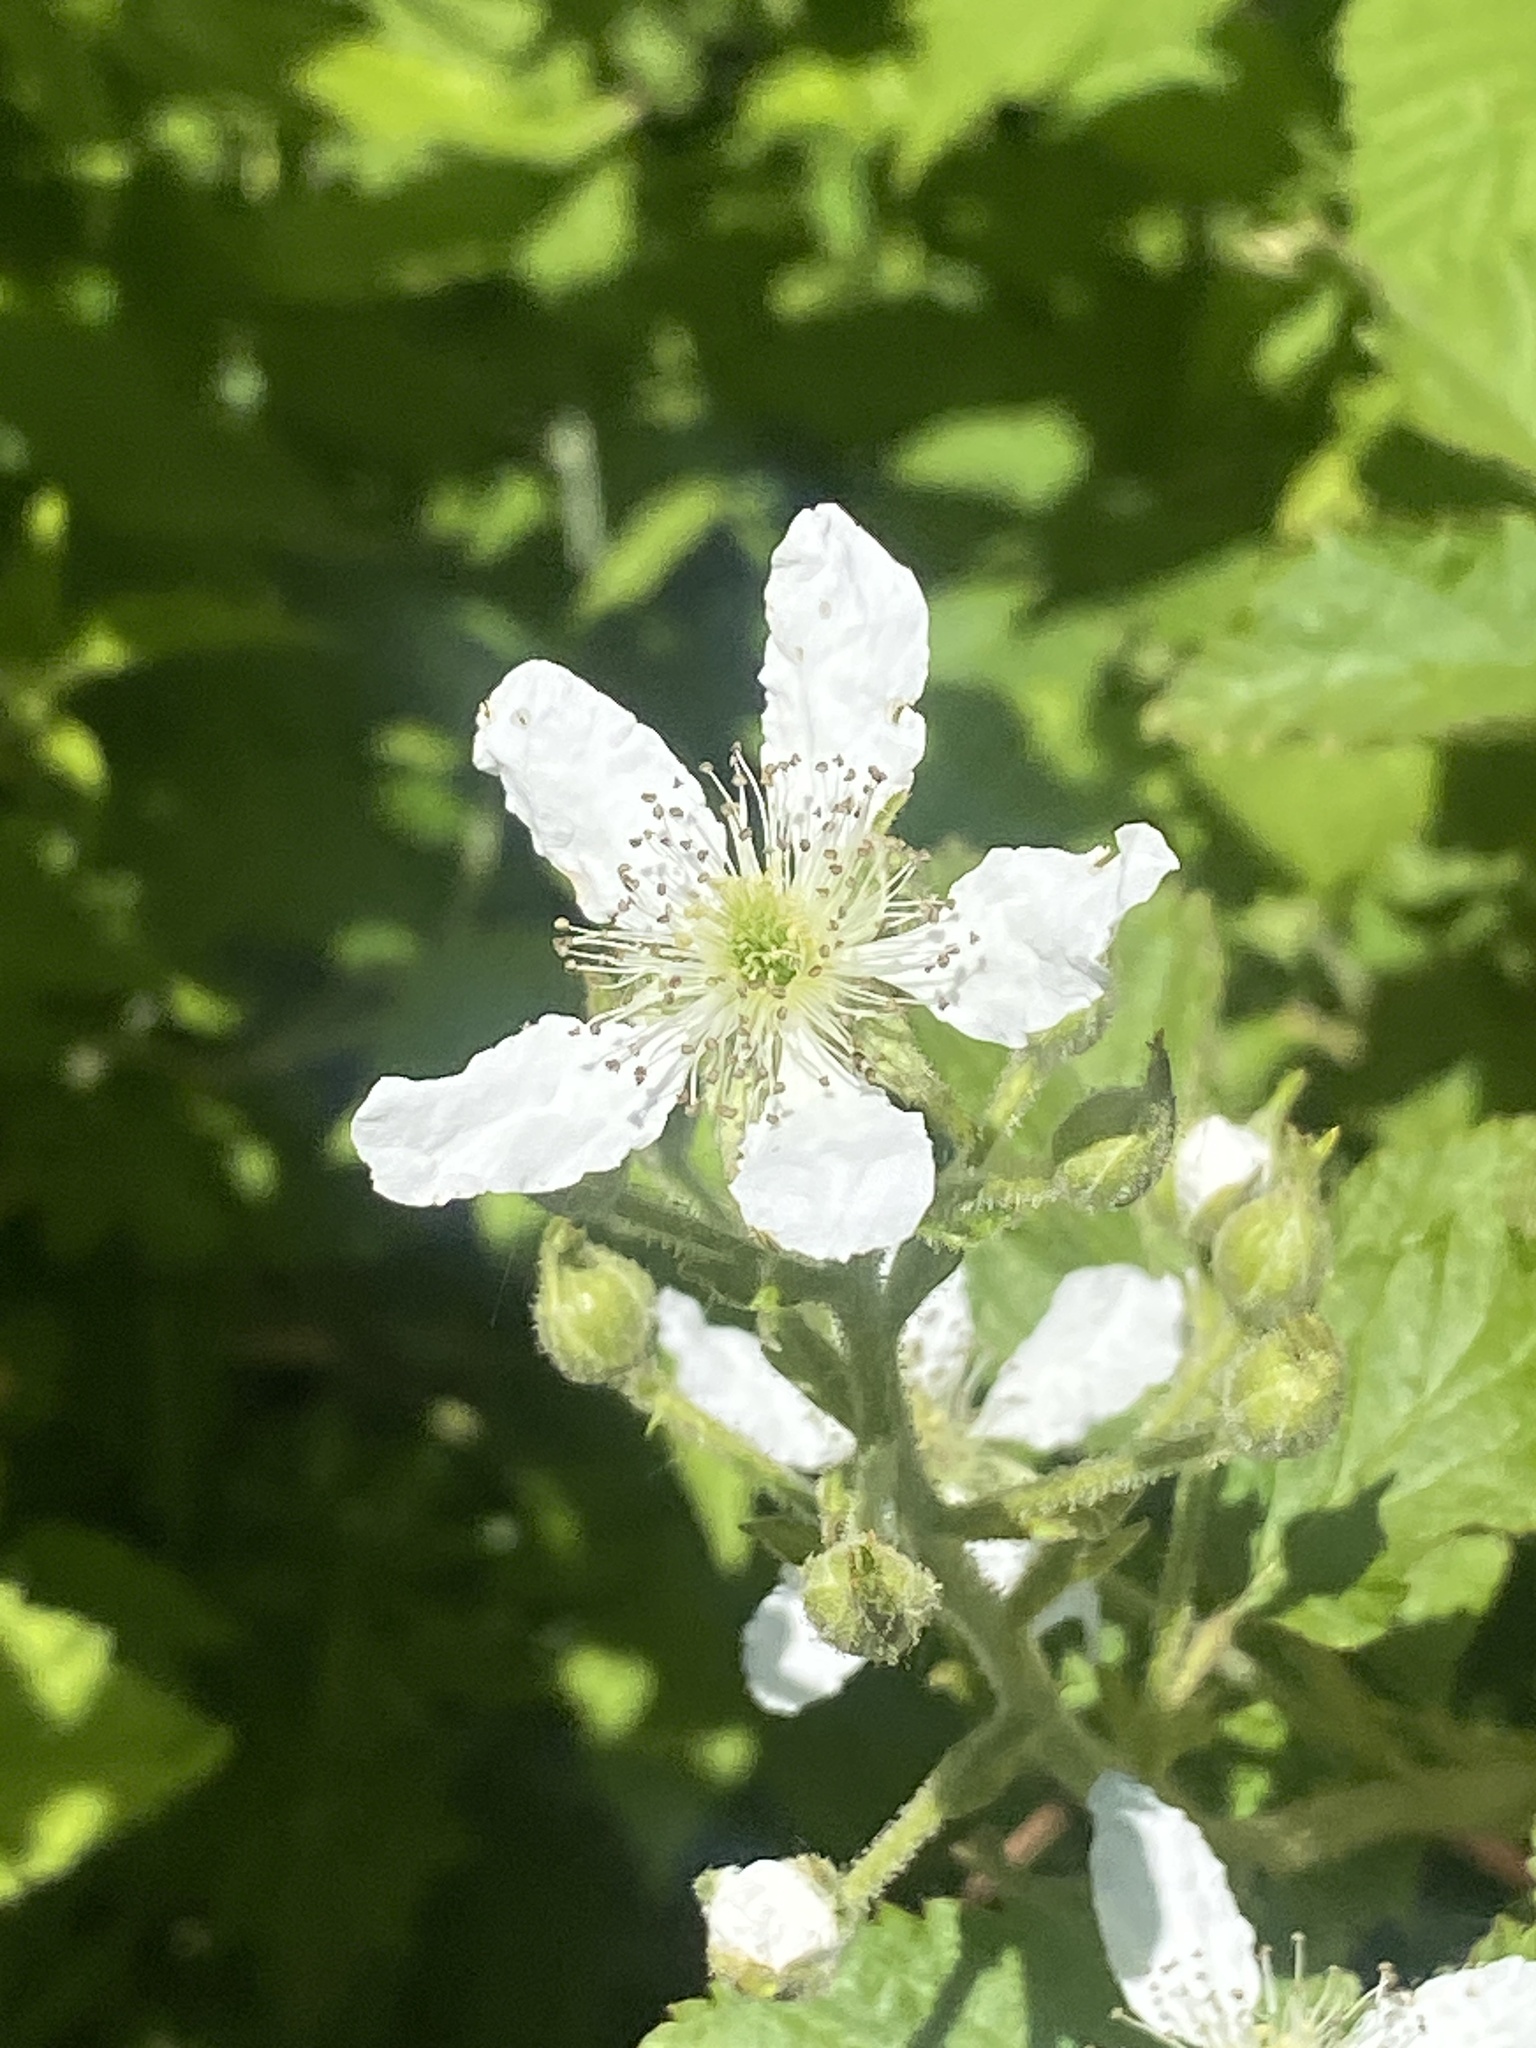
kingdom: Plantae
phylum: Tracheophyta
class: Magnoliopsida
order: Rosales
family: Rosaceae
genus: Rubus
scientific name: Rubus allegheniensis
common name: Allegheny blackberry
